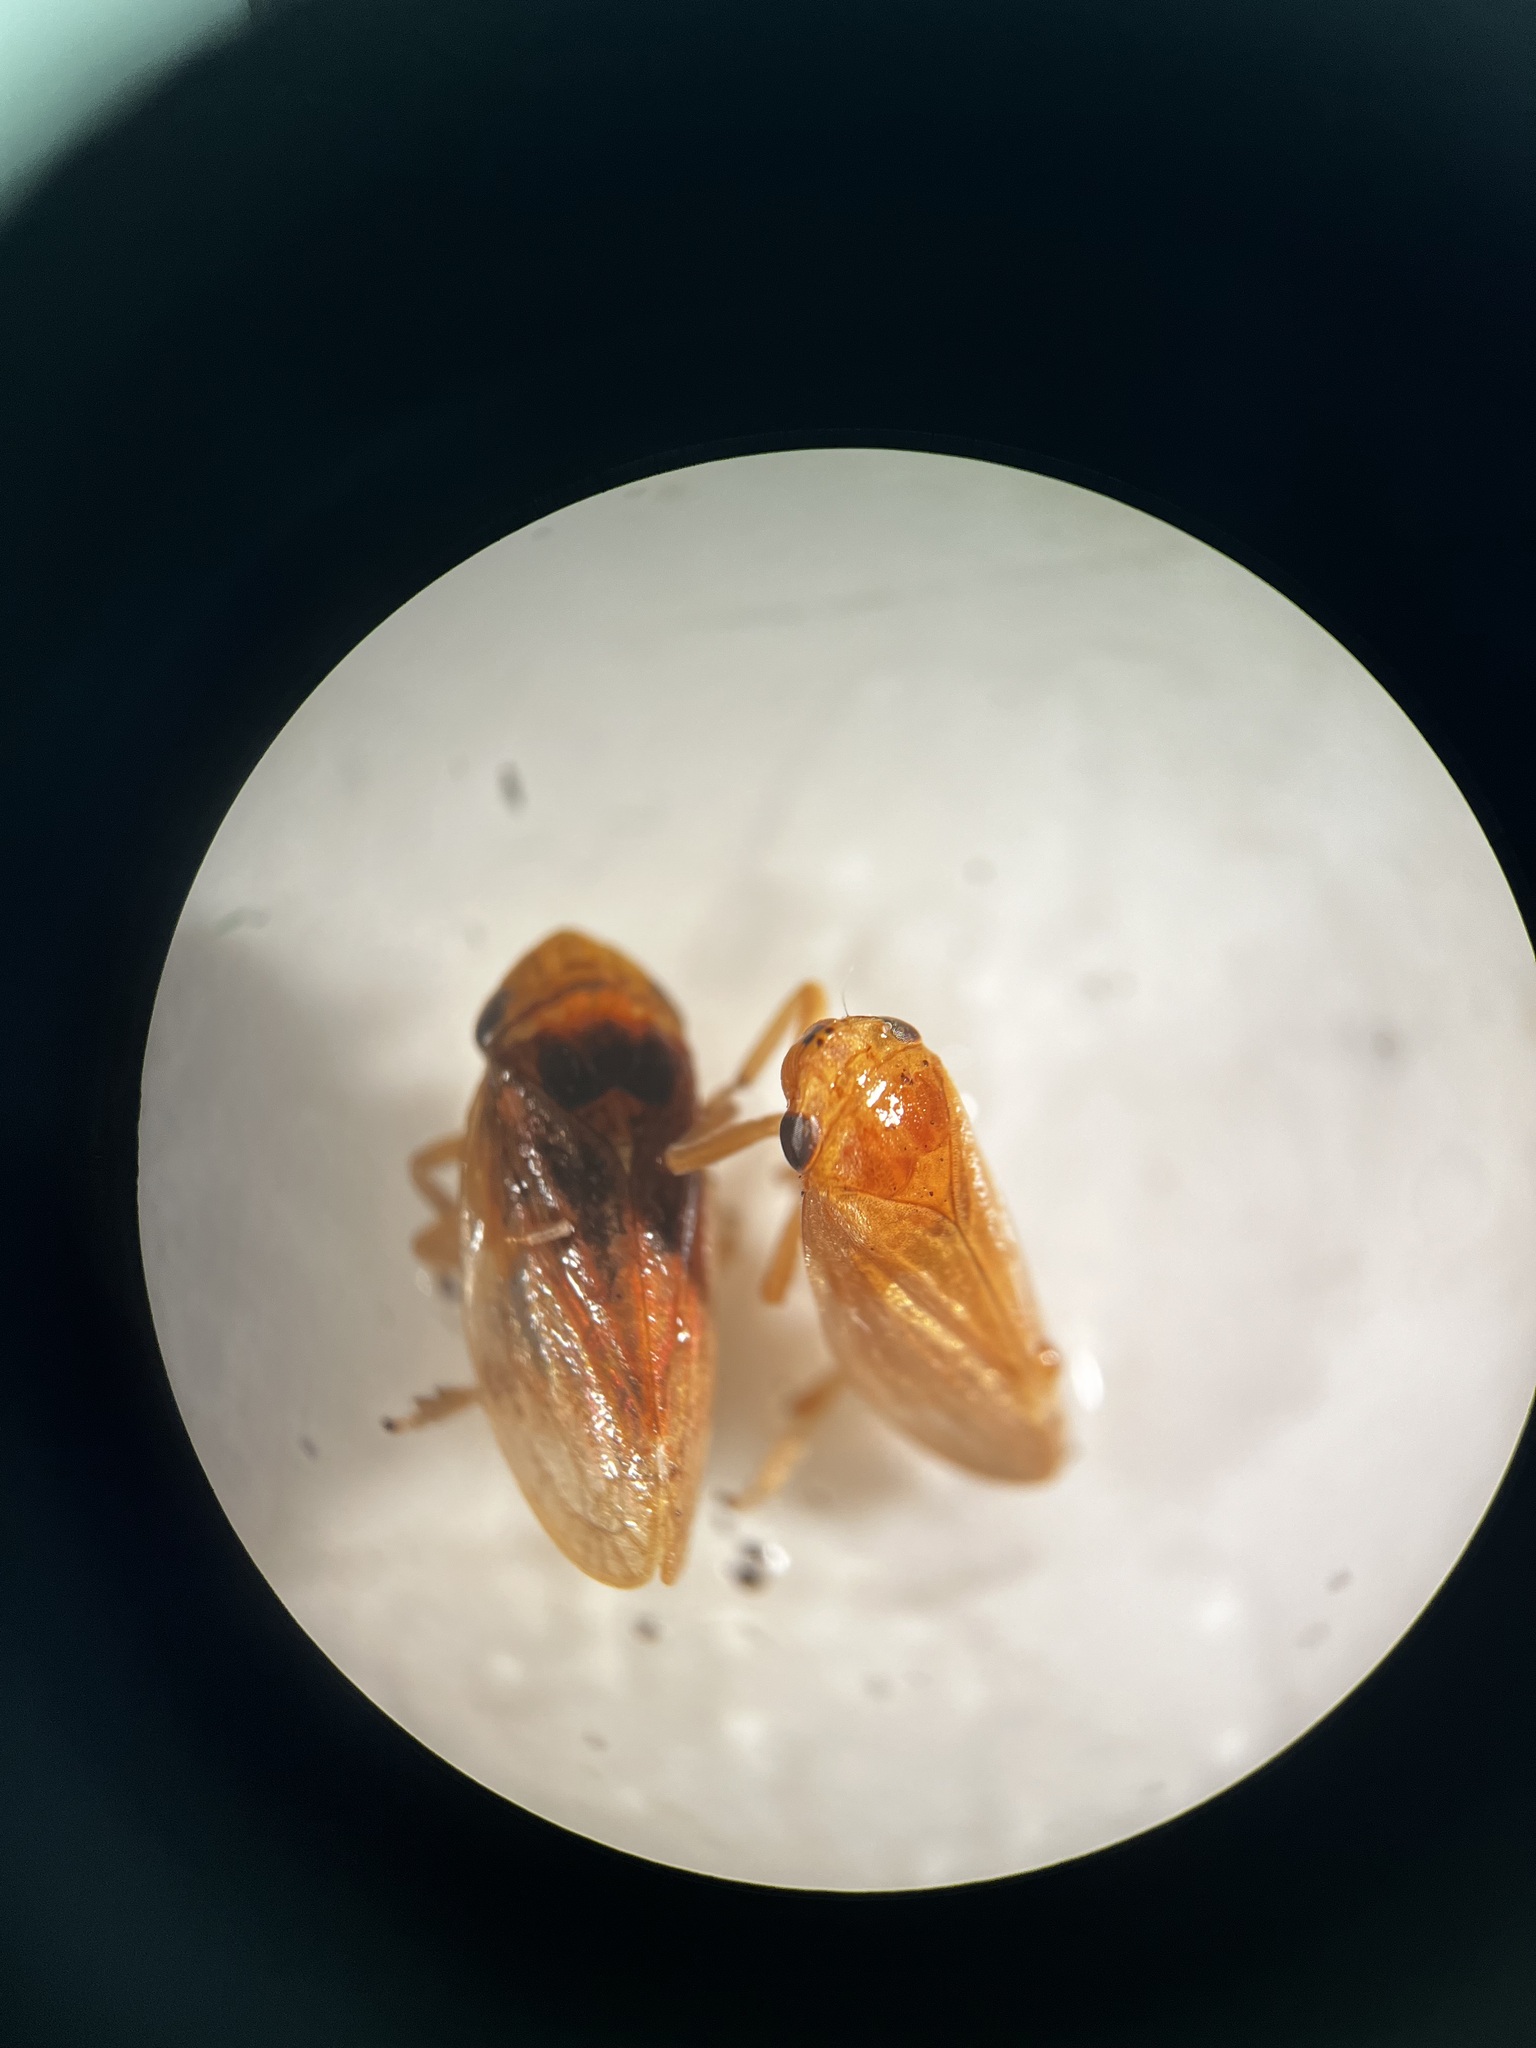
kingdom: Animalia
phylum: Arthropoda
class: Insecta
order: Hemiptera
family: Aphrophoridae
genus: Philaenus
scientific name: Philaenus spumarius
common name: Meadow spittlebug
